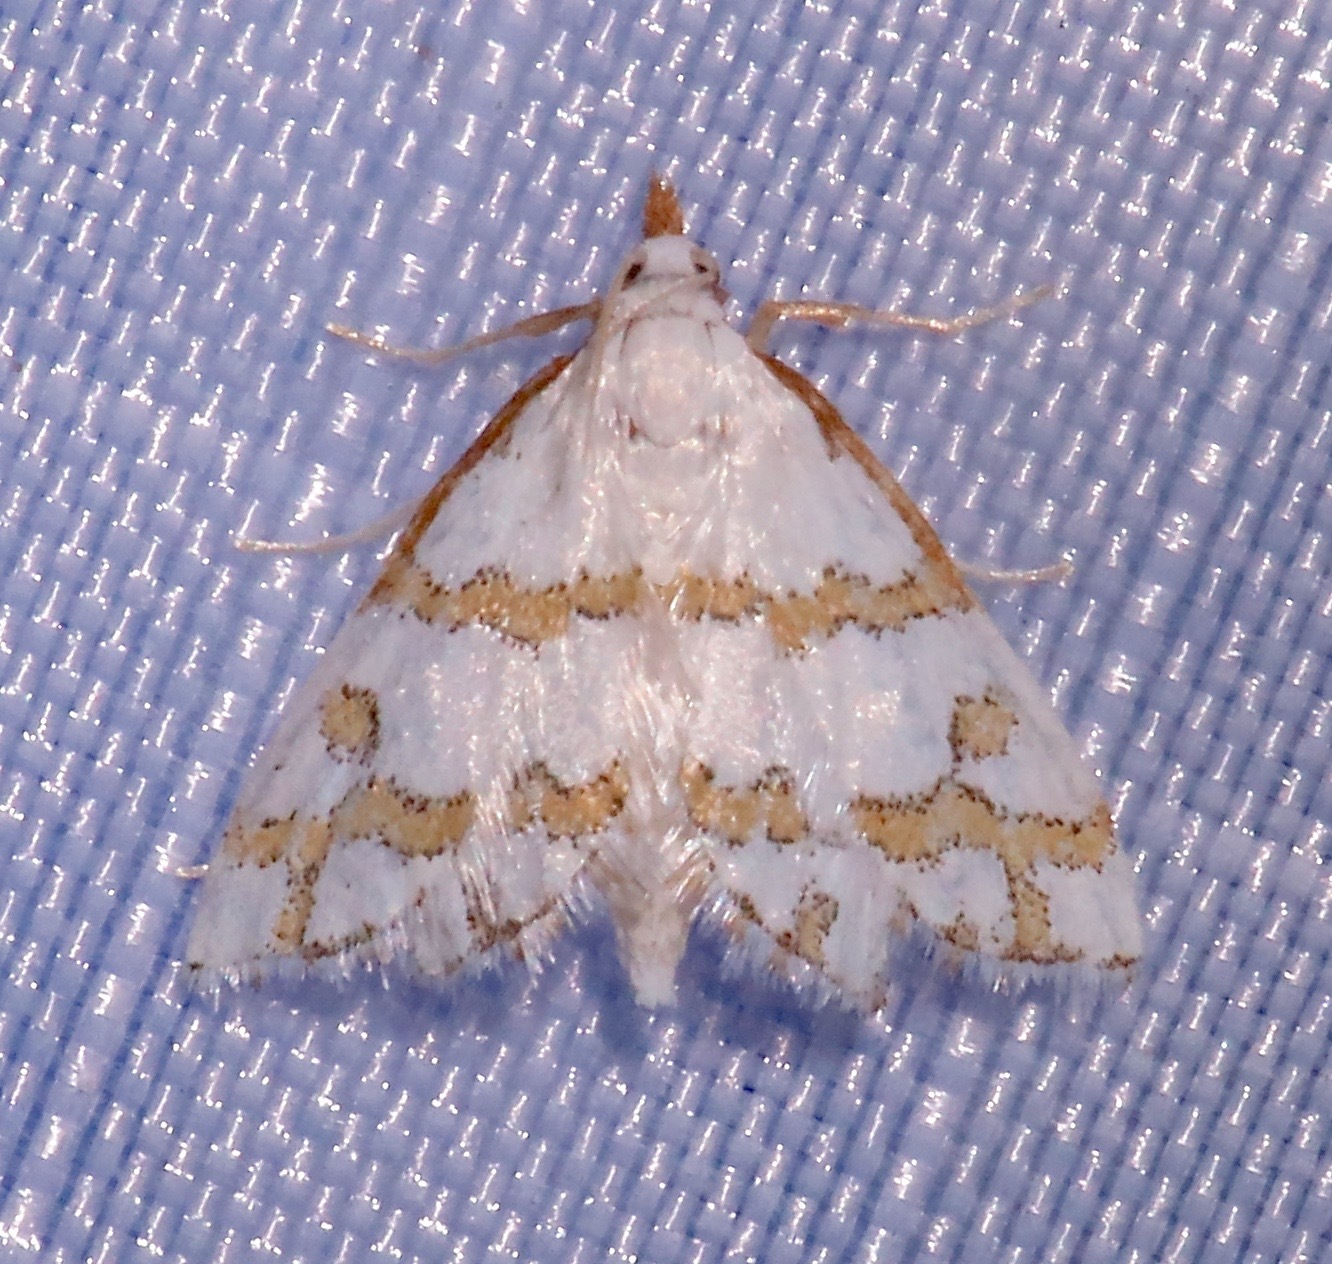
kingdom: Animalia
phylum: Arthropoda
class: Insecta
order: Lepidoptera
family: Crambidae
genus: Leptosteges
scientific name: Leptosteges
